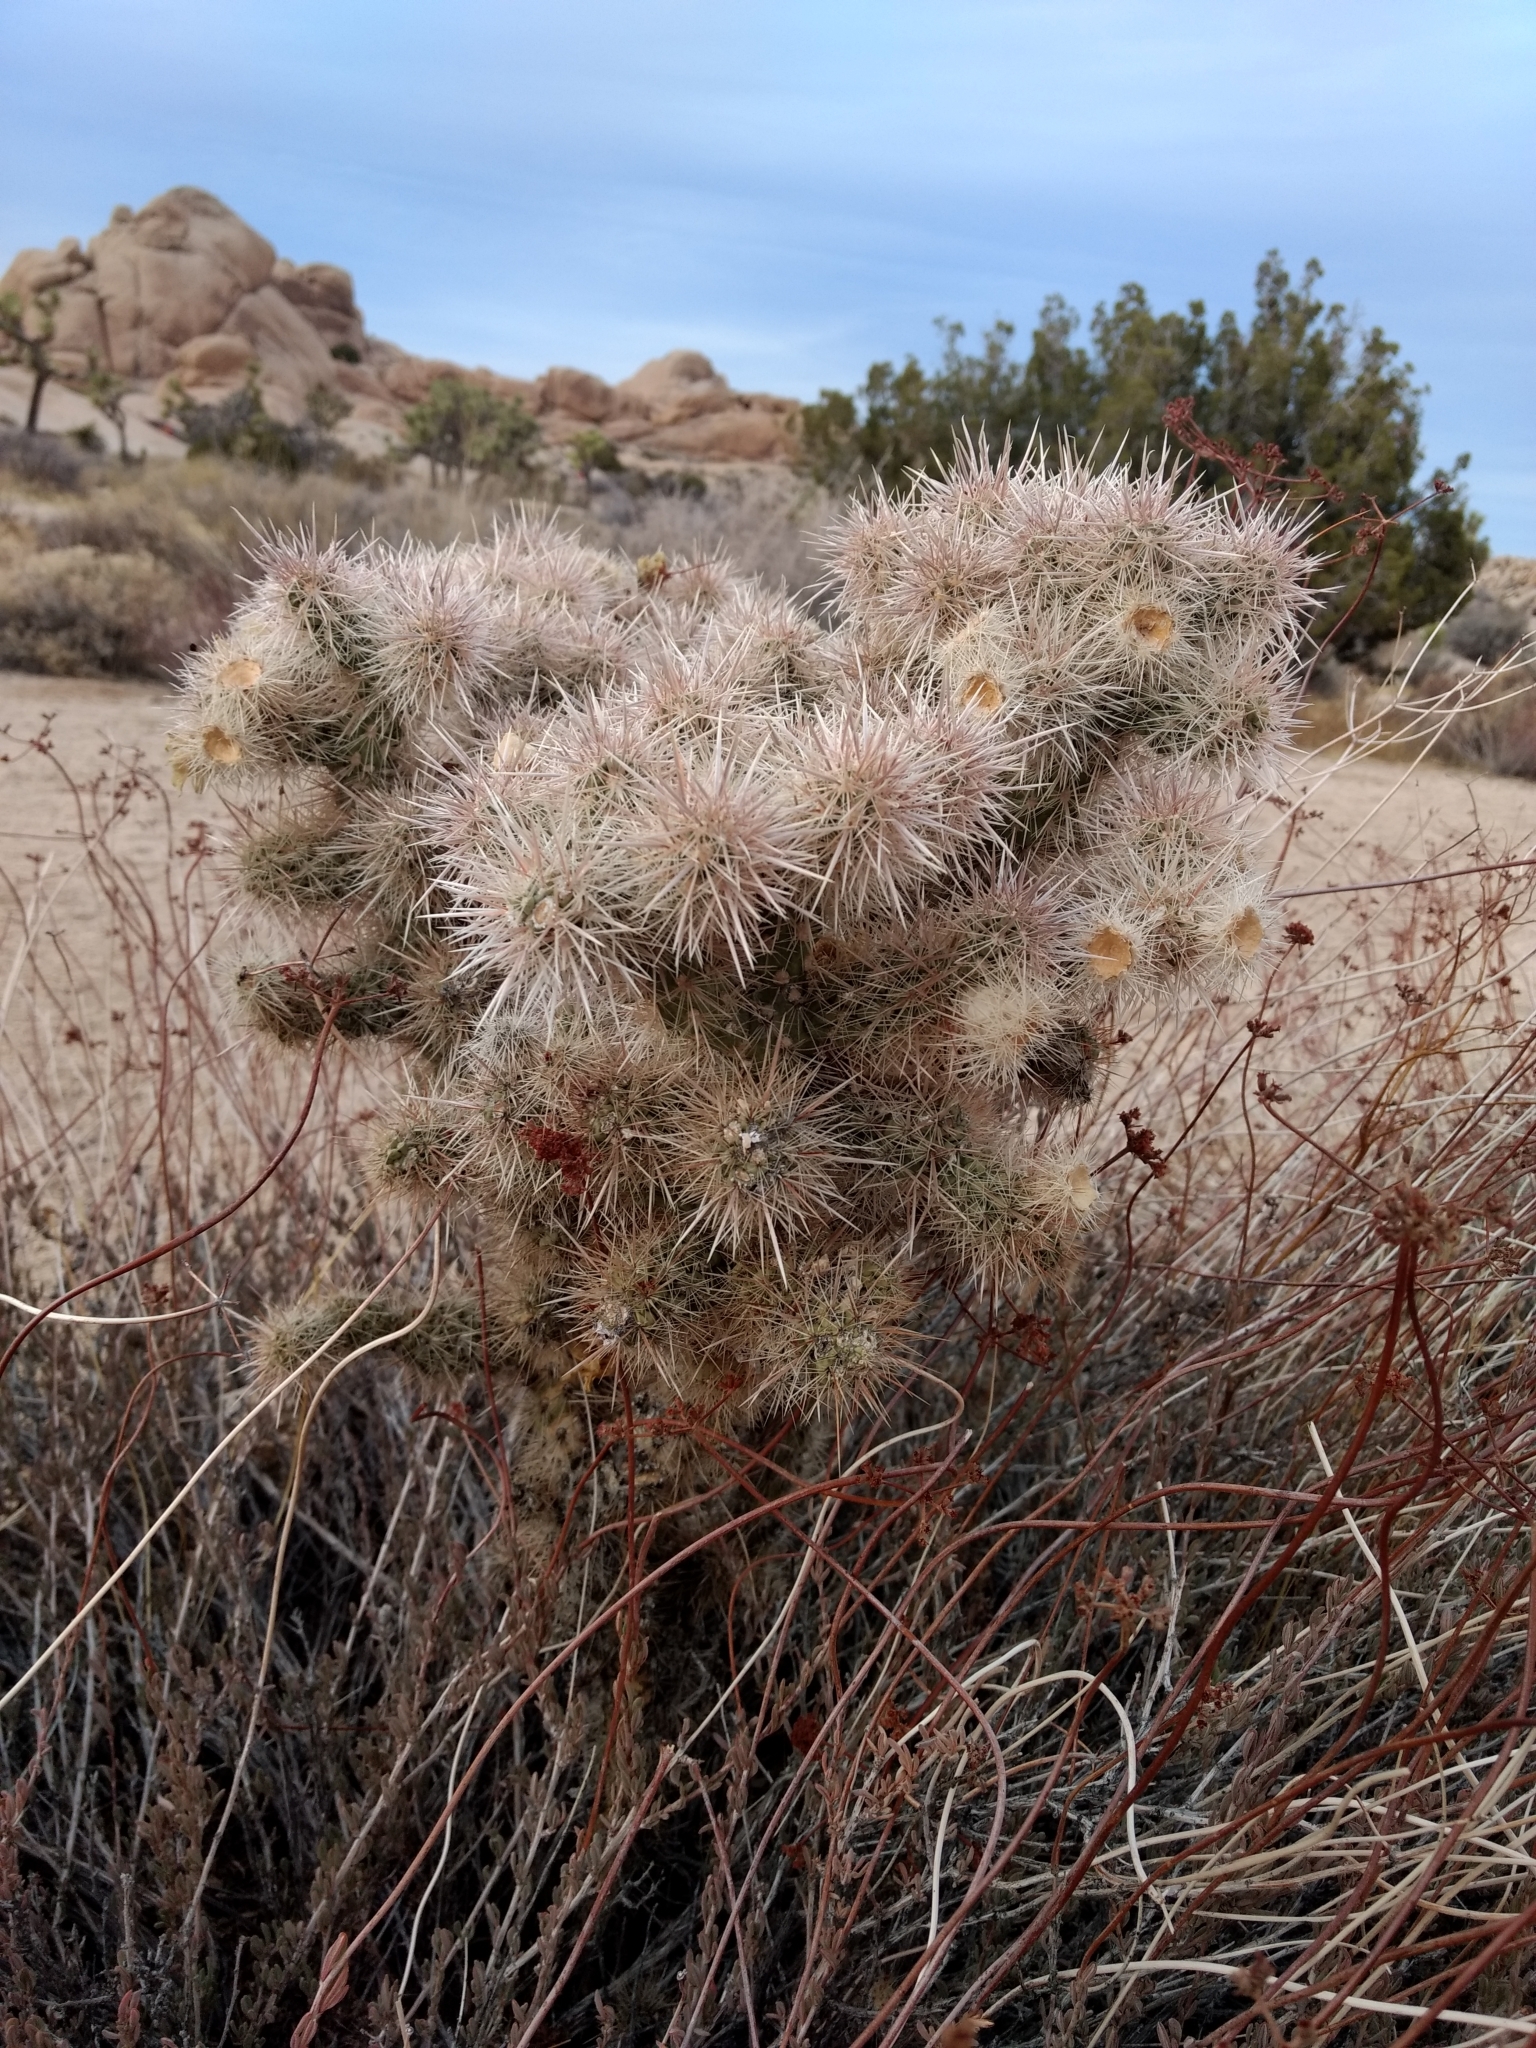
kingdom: Plantae
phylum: Tracheophyta
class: Magnoliopsida
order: Caryophyllales
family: Cactaceae
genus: Cylindropuntia
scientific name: Cylindropuntia echinocarpa
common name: Ground cholla
